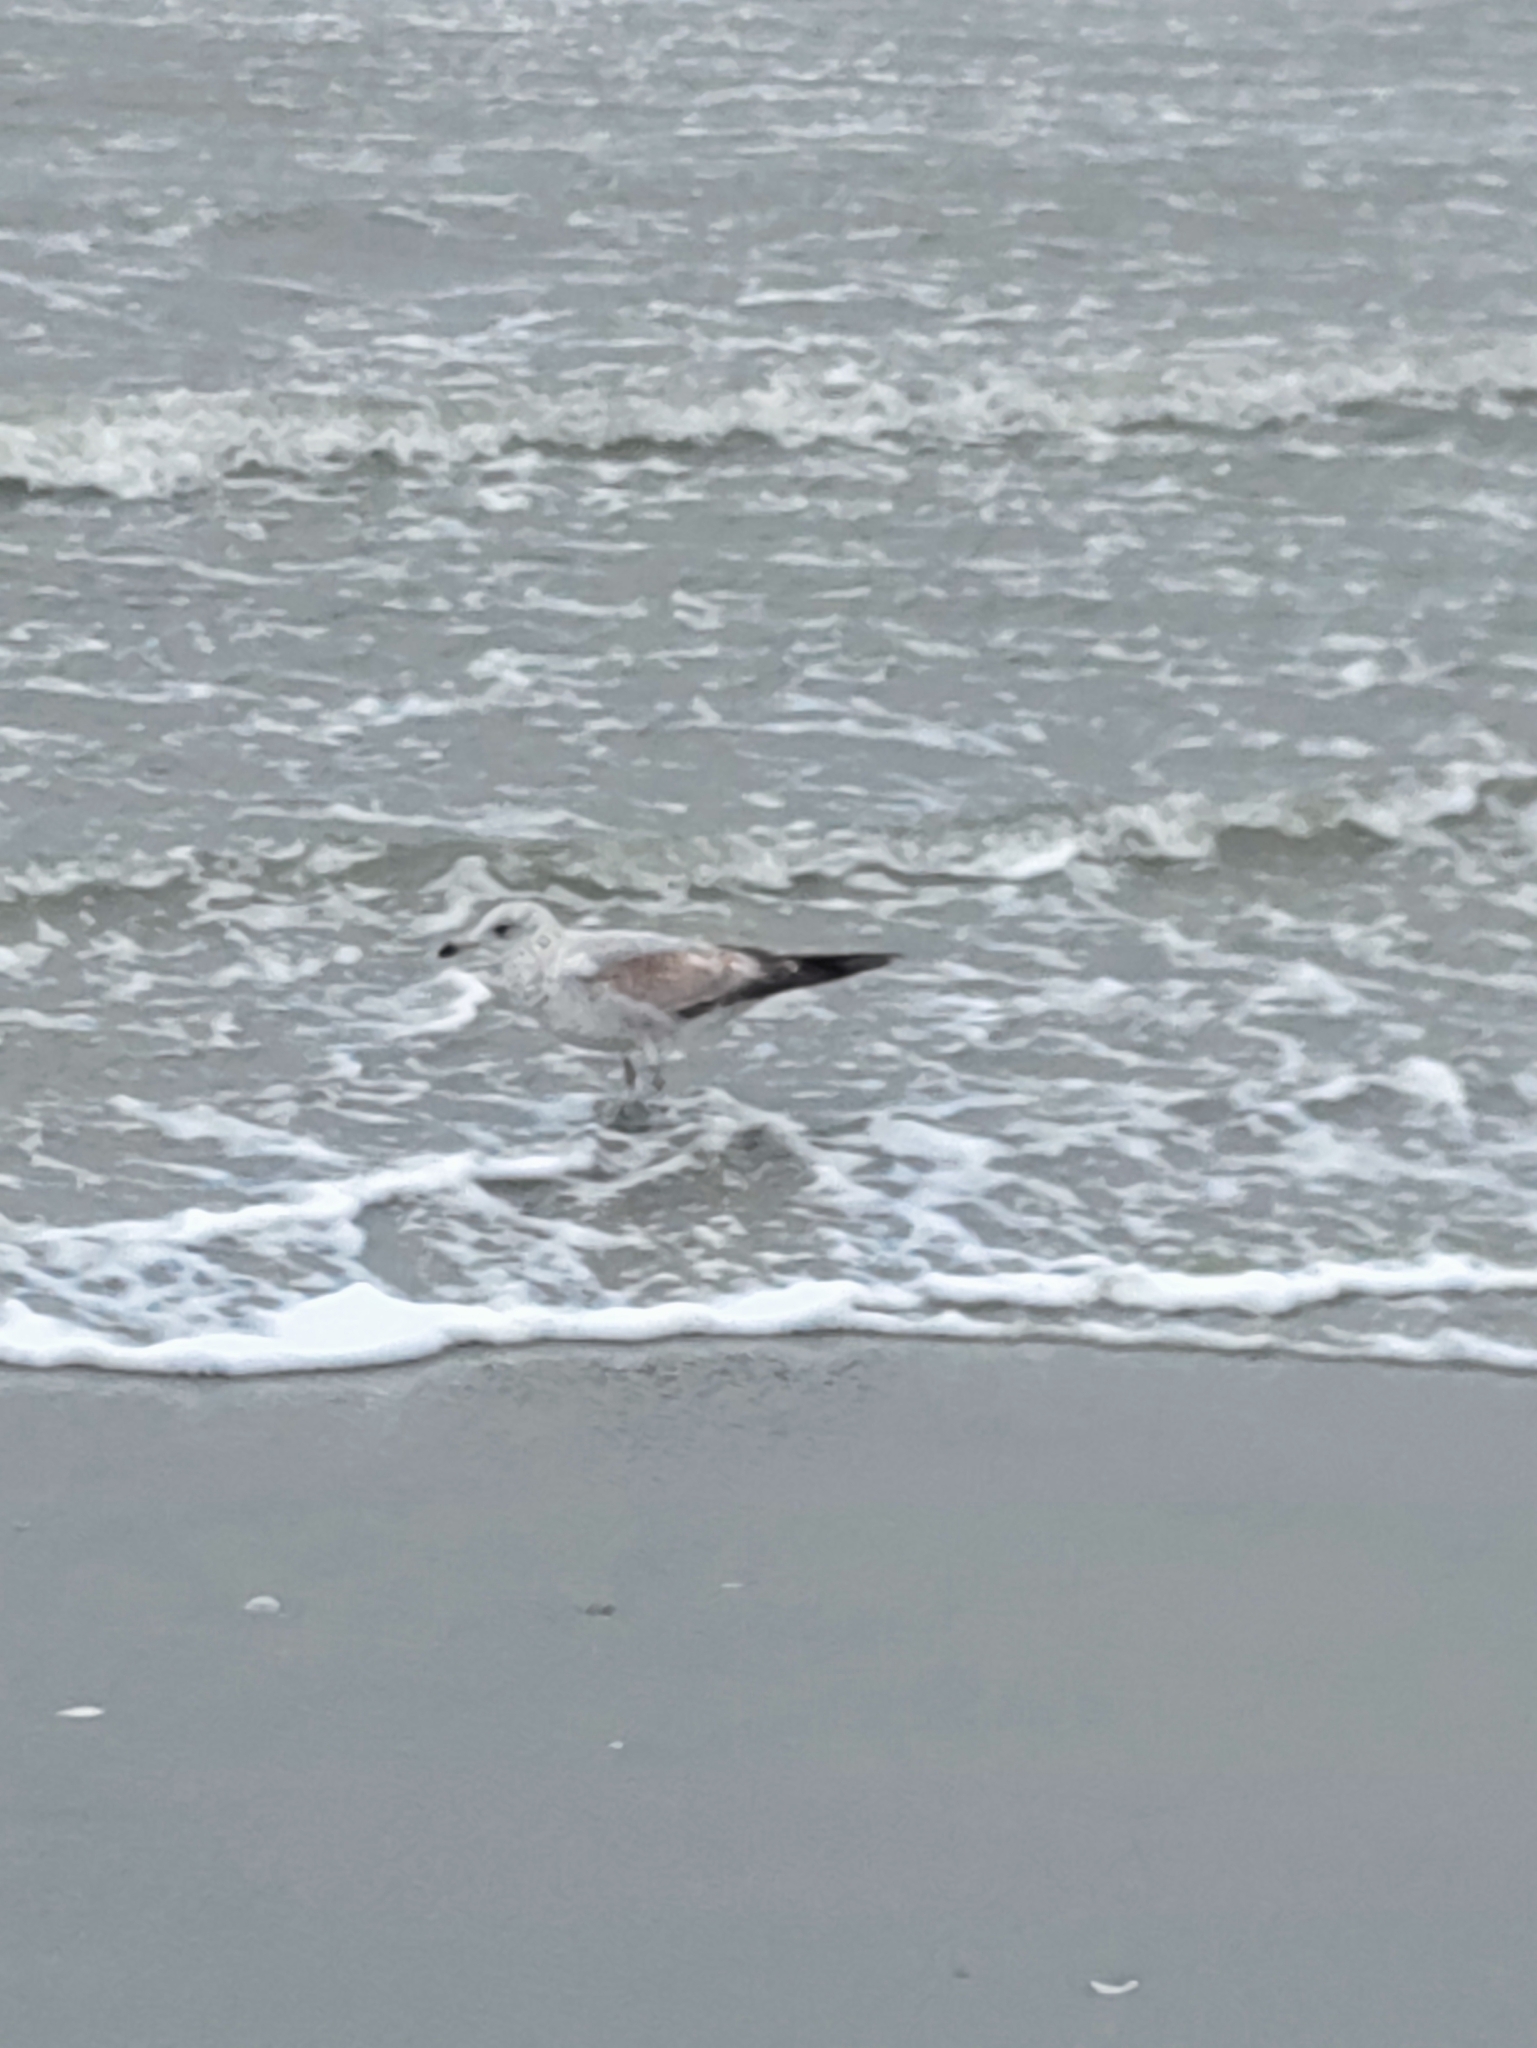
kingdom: Animalia
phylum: Chordata
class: Aves
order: Charadriiformes
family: Laridae
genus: Larus
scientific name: Larus delawarensis
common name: Ring-billed gull
